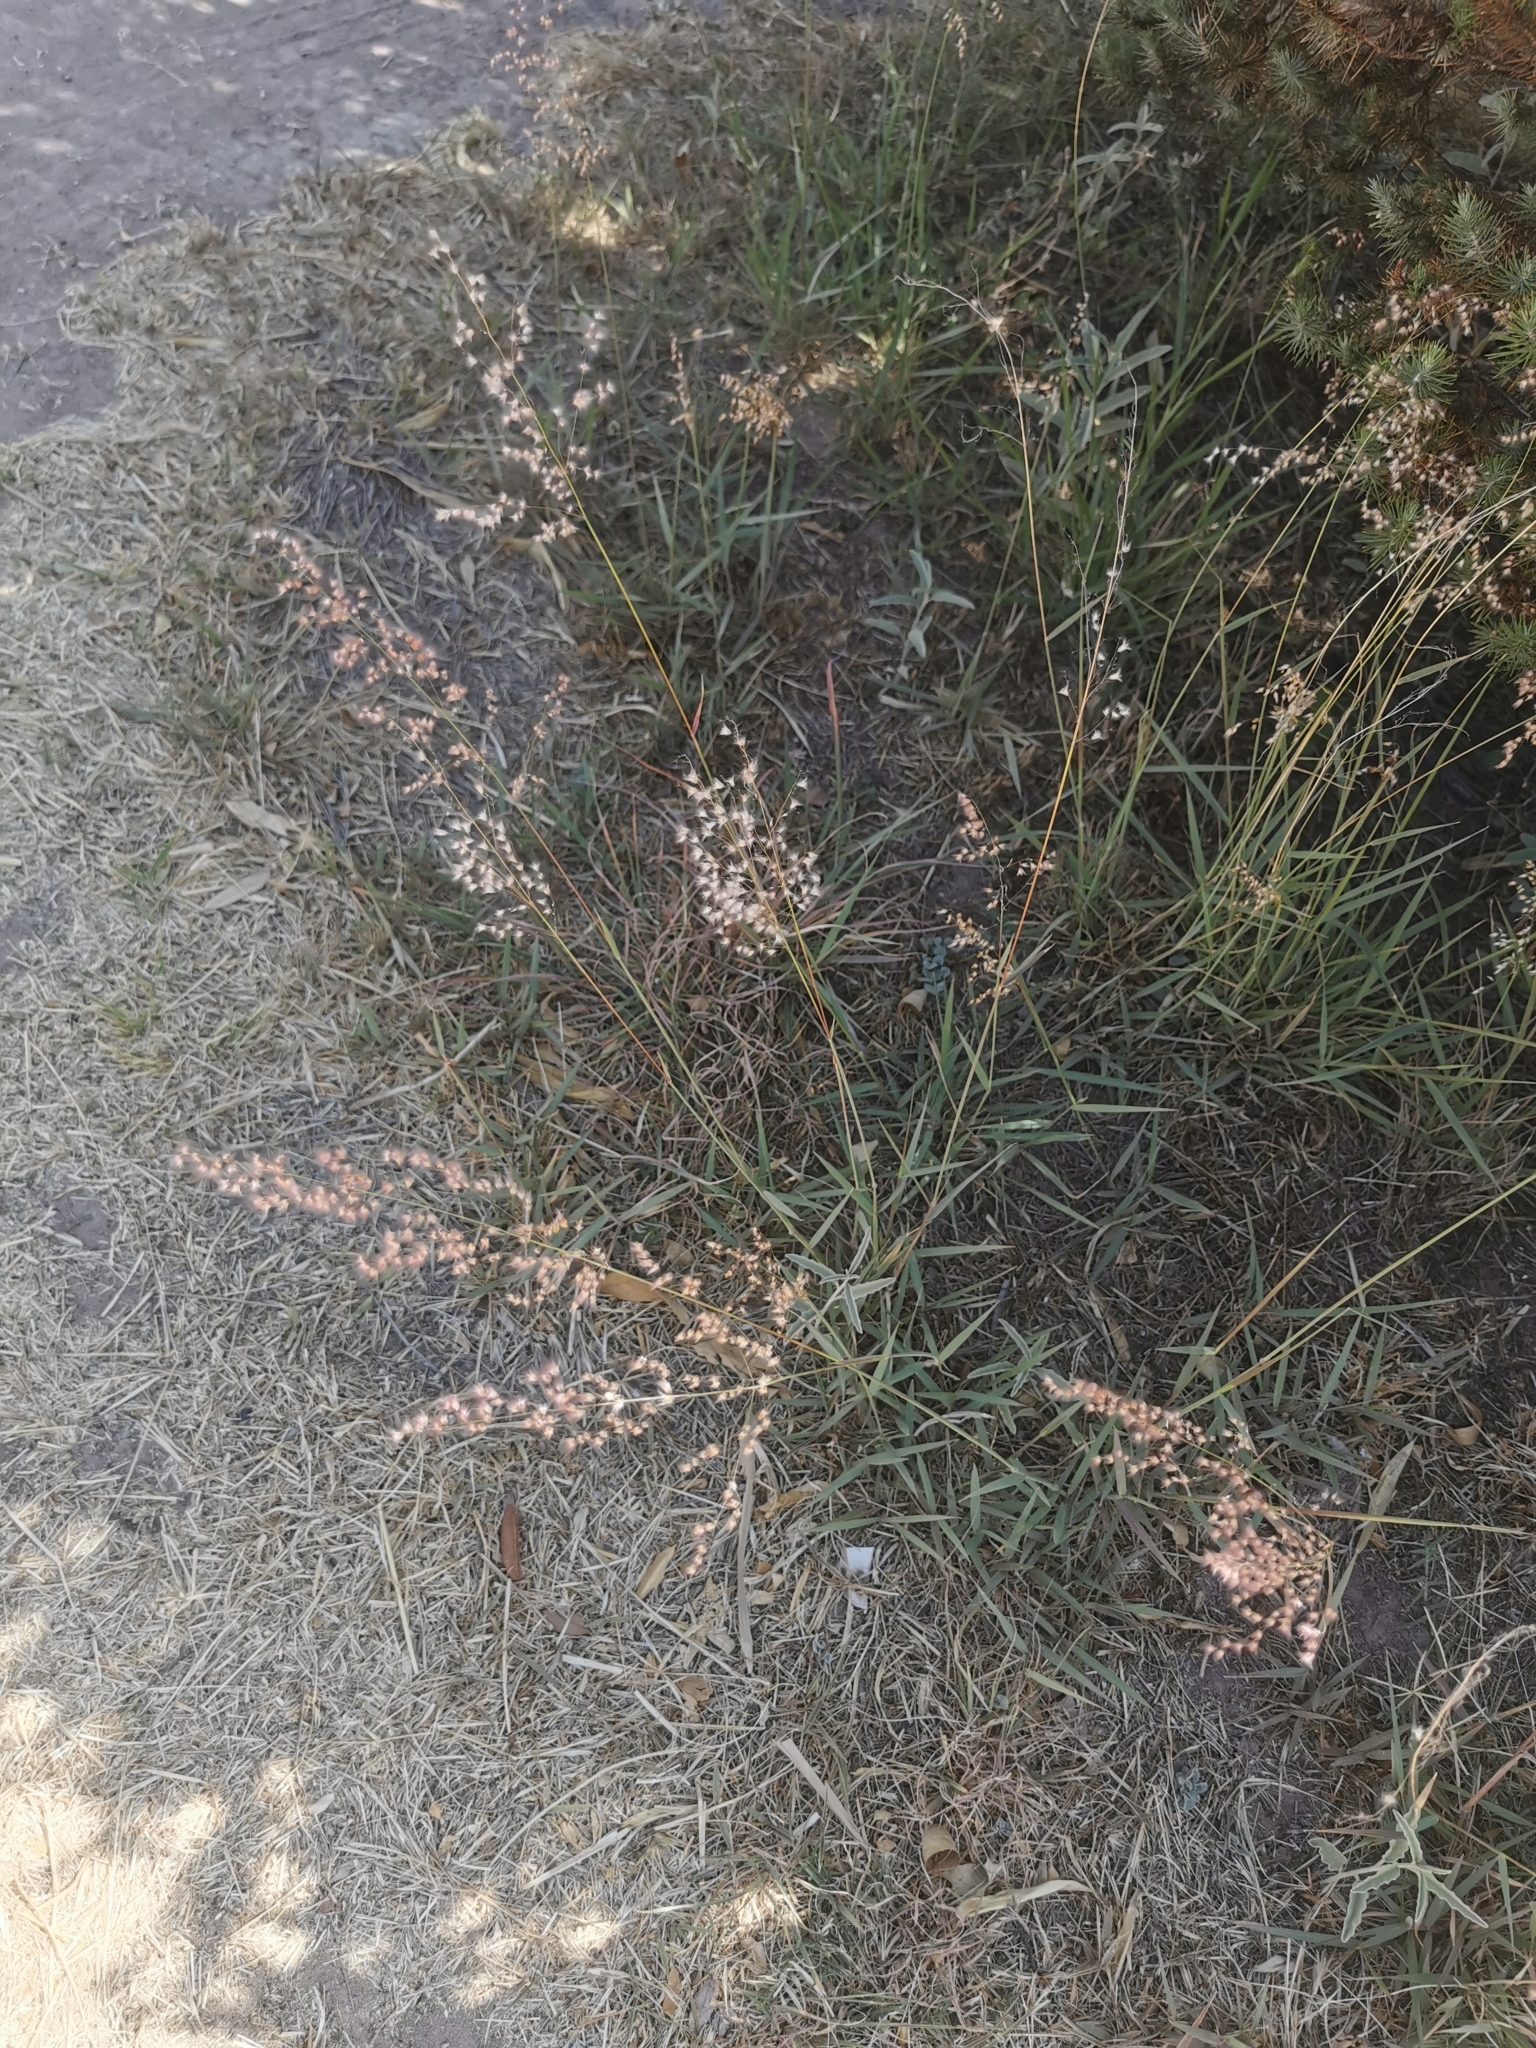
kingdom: Plantae
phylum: Tracheophyta
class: Liliopsida
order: Poales
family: Poaceae
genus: Melinis
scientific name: Melinis repens
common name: Rose natal grass
